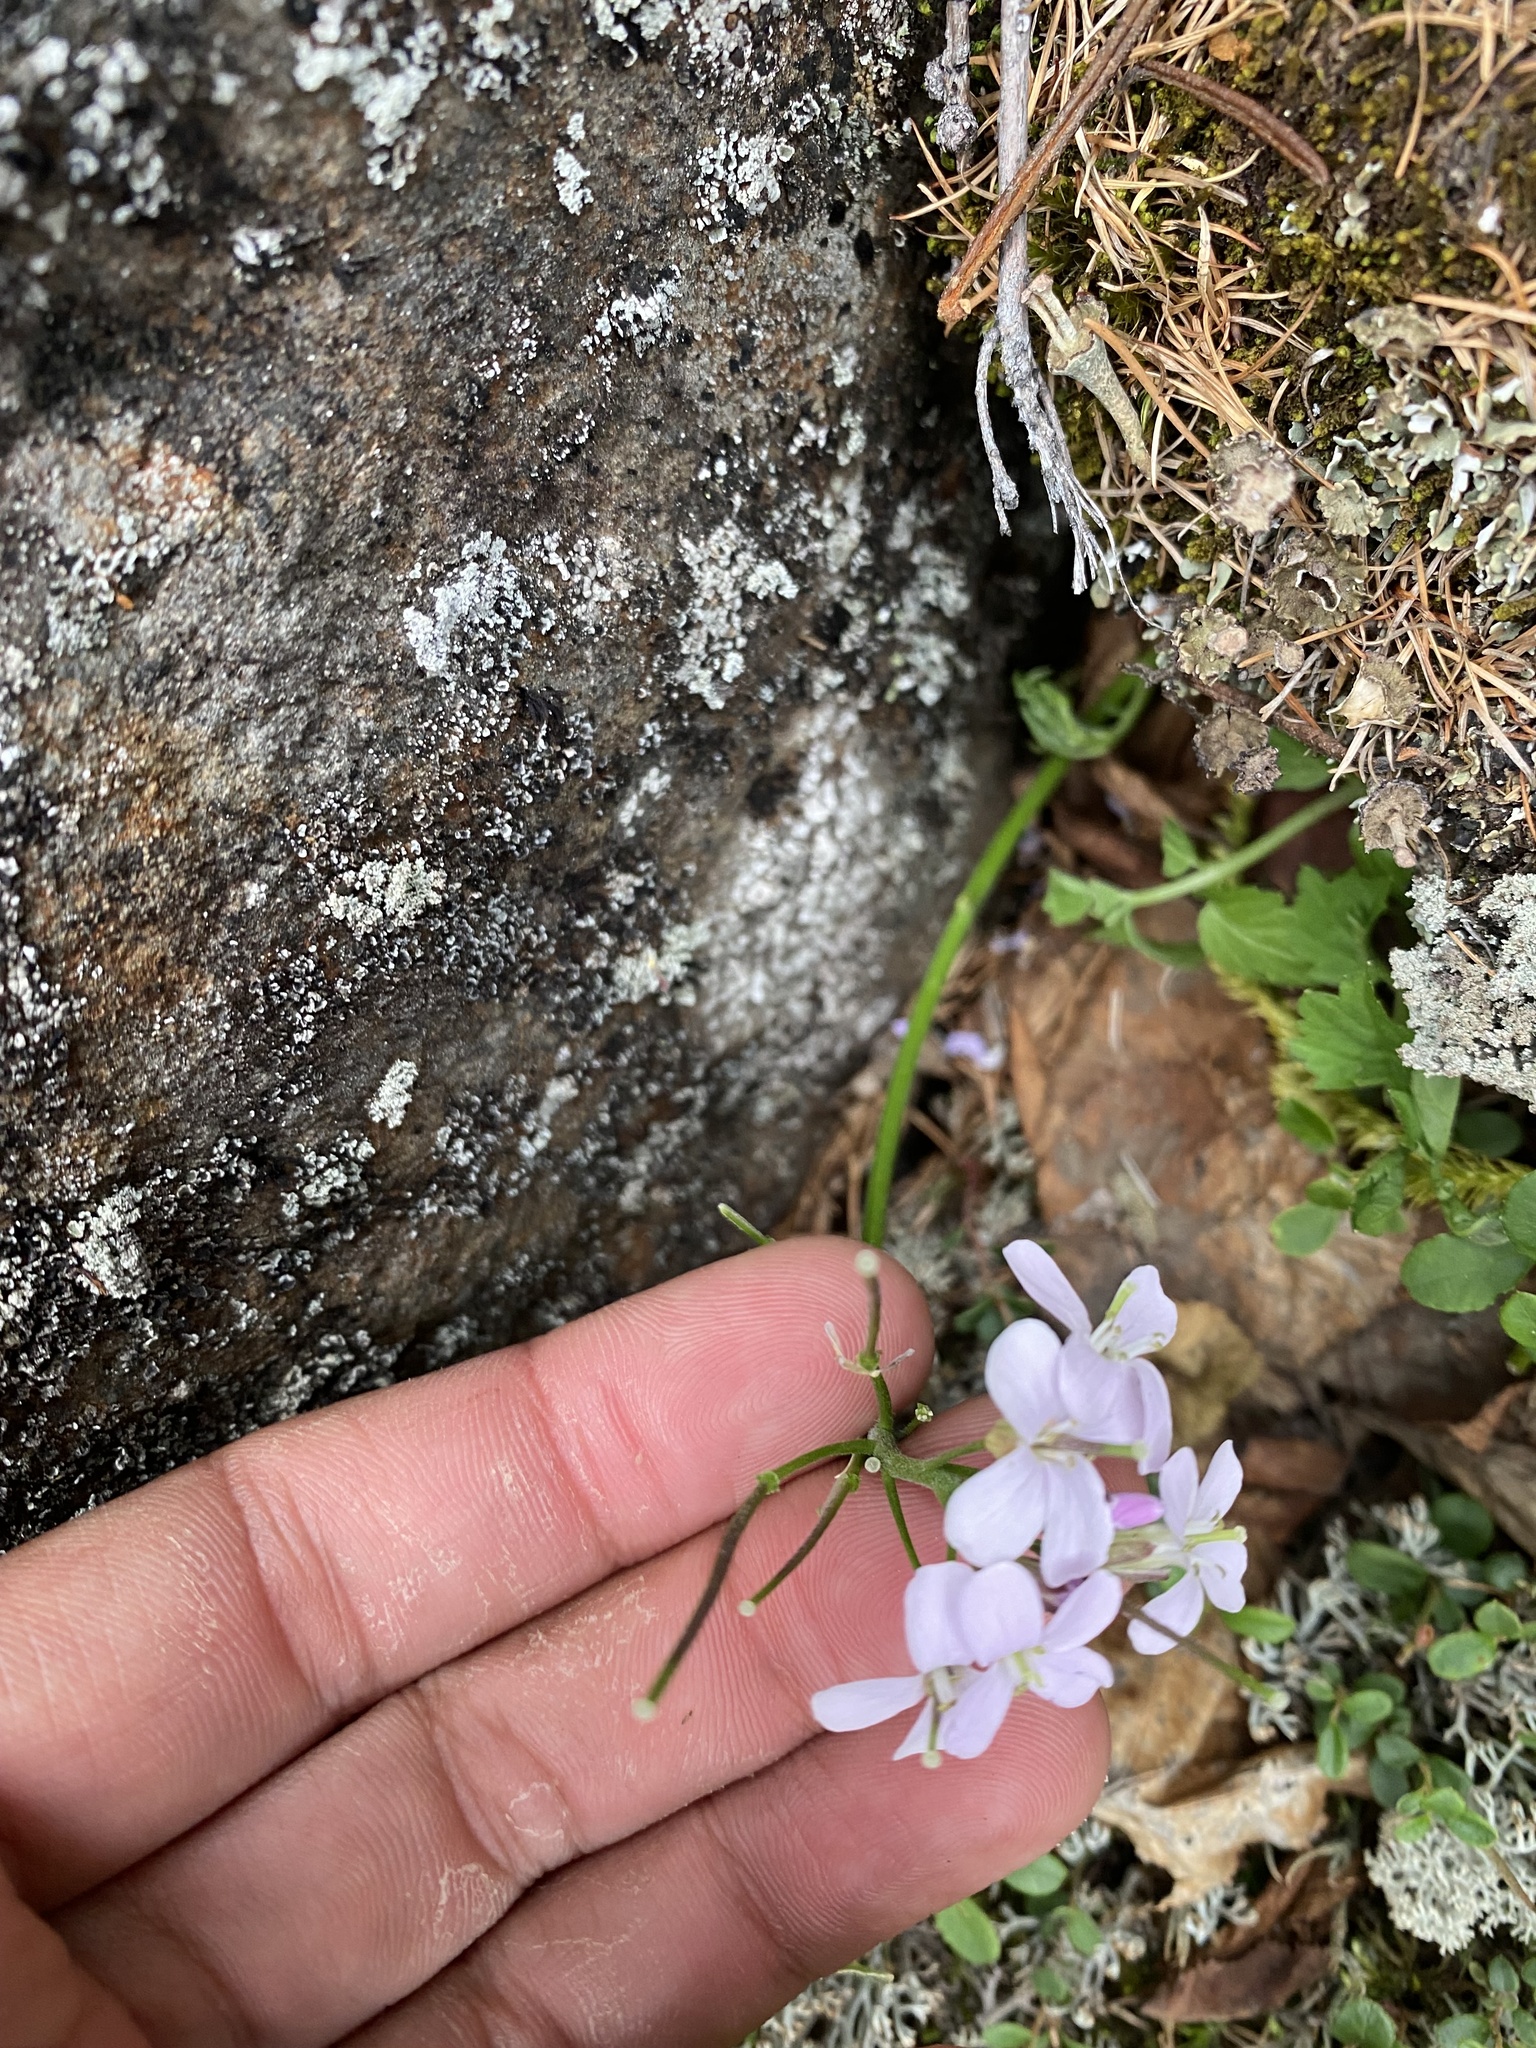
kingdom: Plantae
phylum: Tracheophyta
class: Magnoliopsida
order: Brassicales
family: Brassicaceae
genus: Parrya
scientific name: Parrya nudicaulis
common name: Naked-stemmed false wallflower
